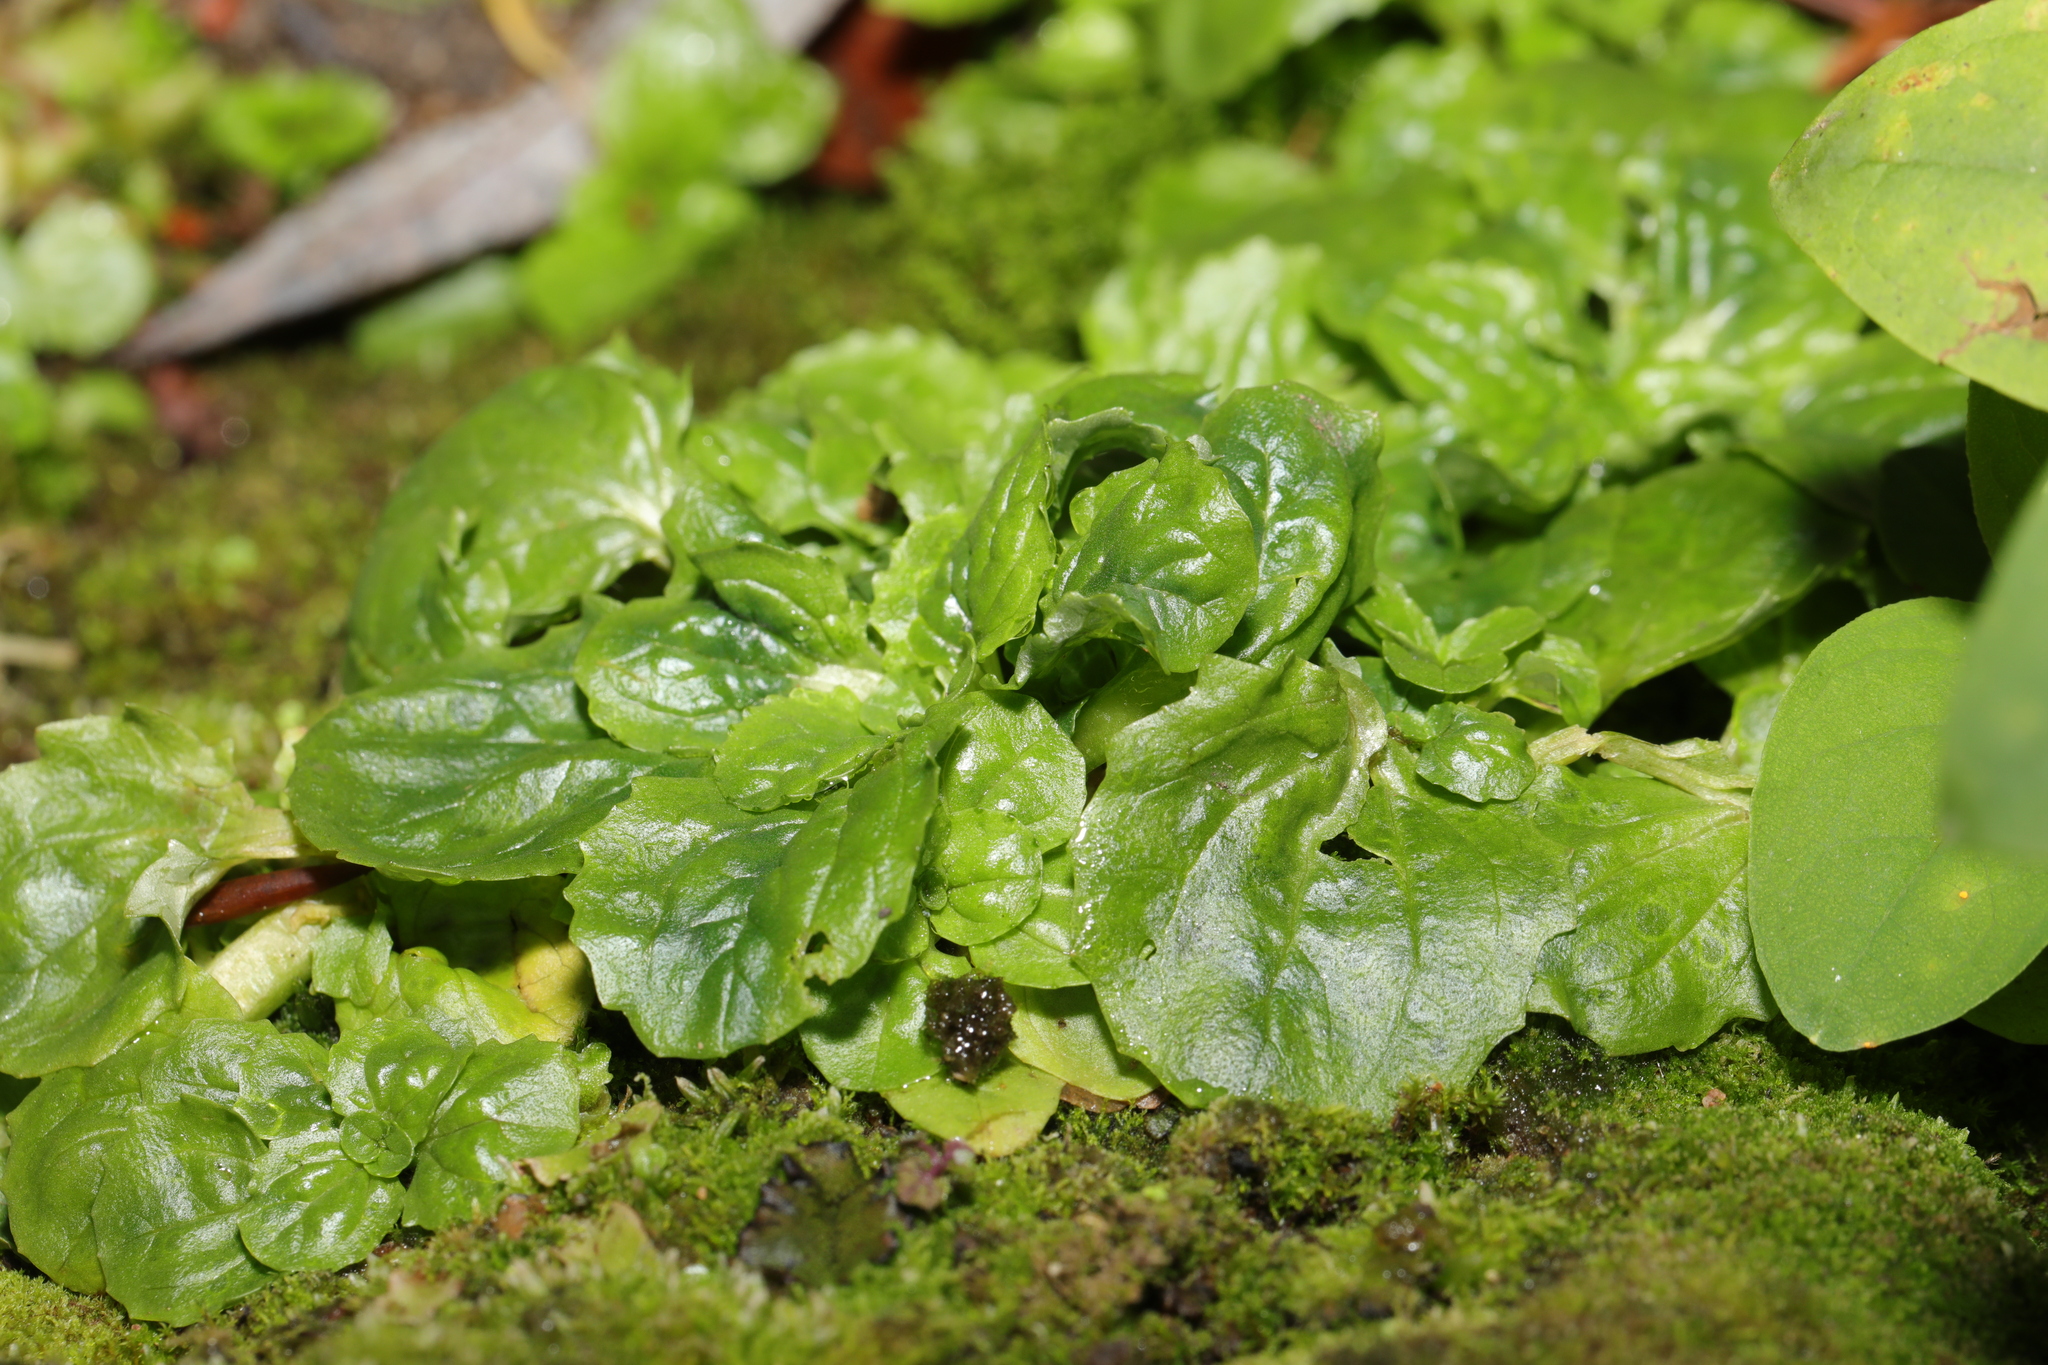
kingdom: Plantae
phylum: Tracheophyta
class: Magnoliopsida
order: Lamiales
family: Phrymaceae
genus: Erythranthe
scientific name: Erythranthe guttata
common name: Monkeyflower
